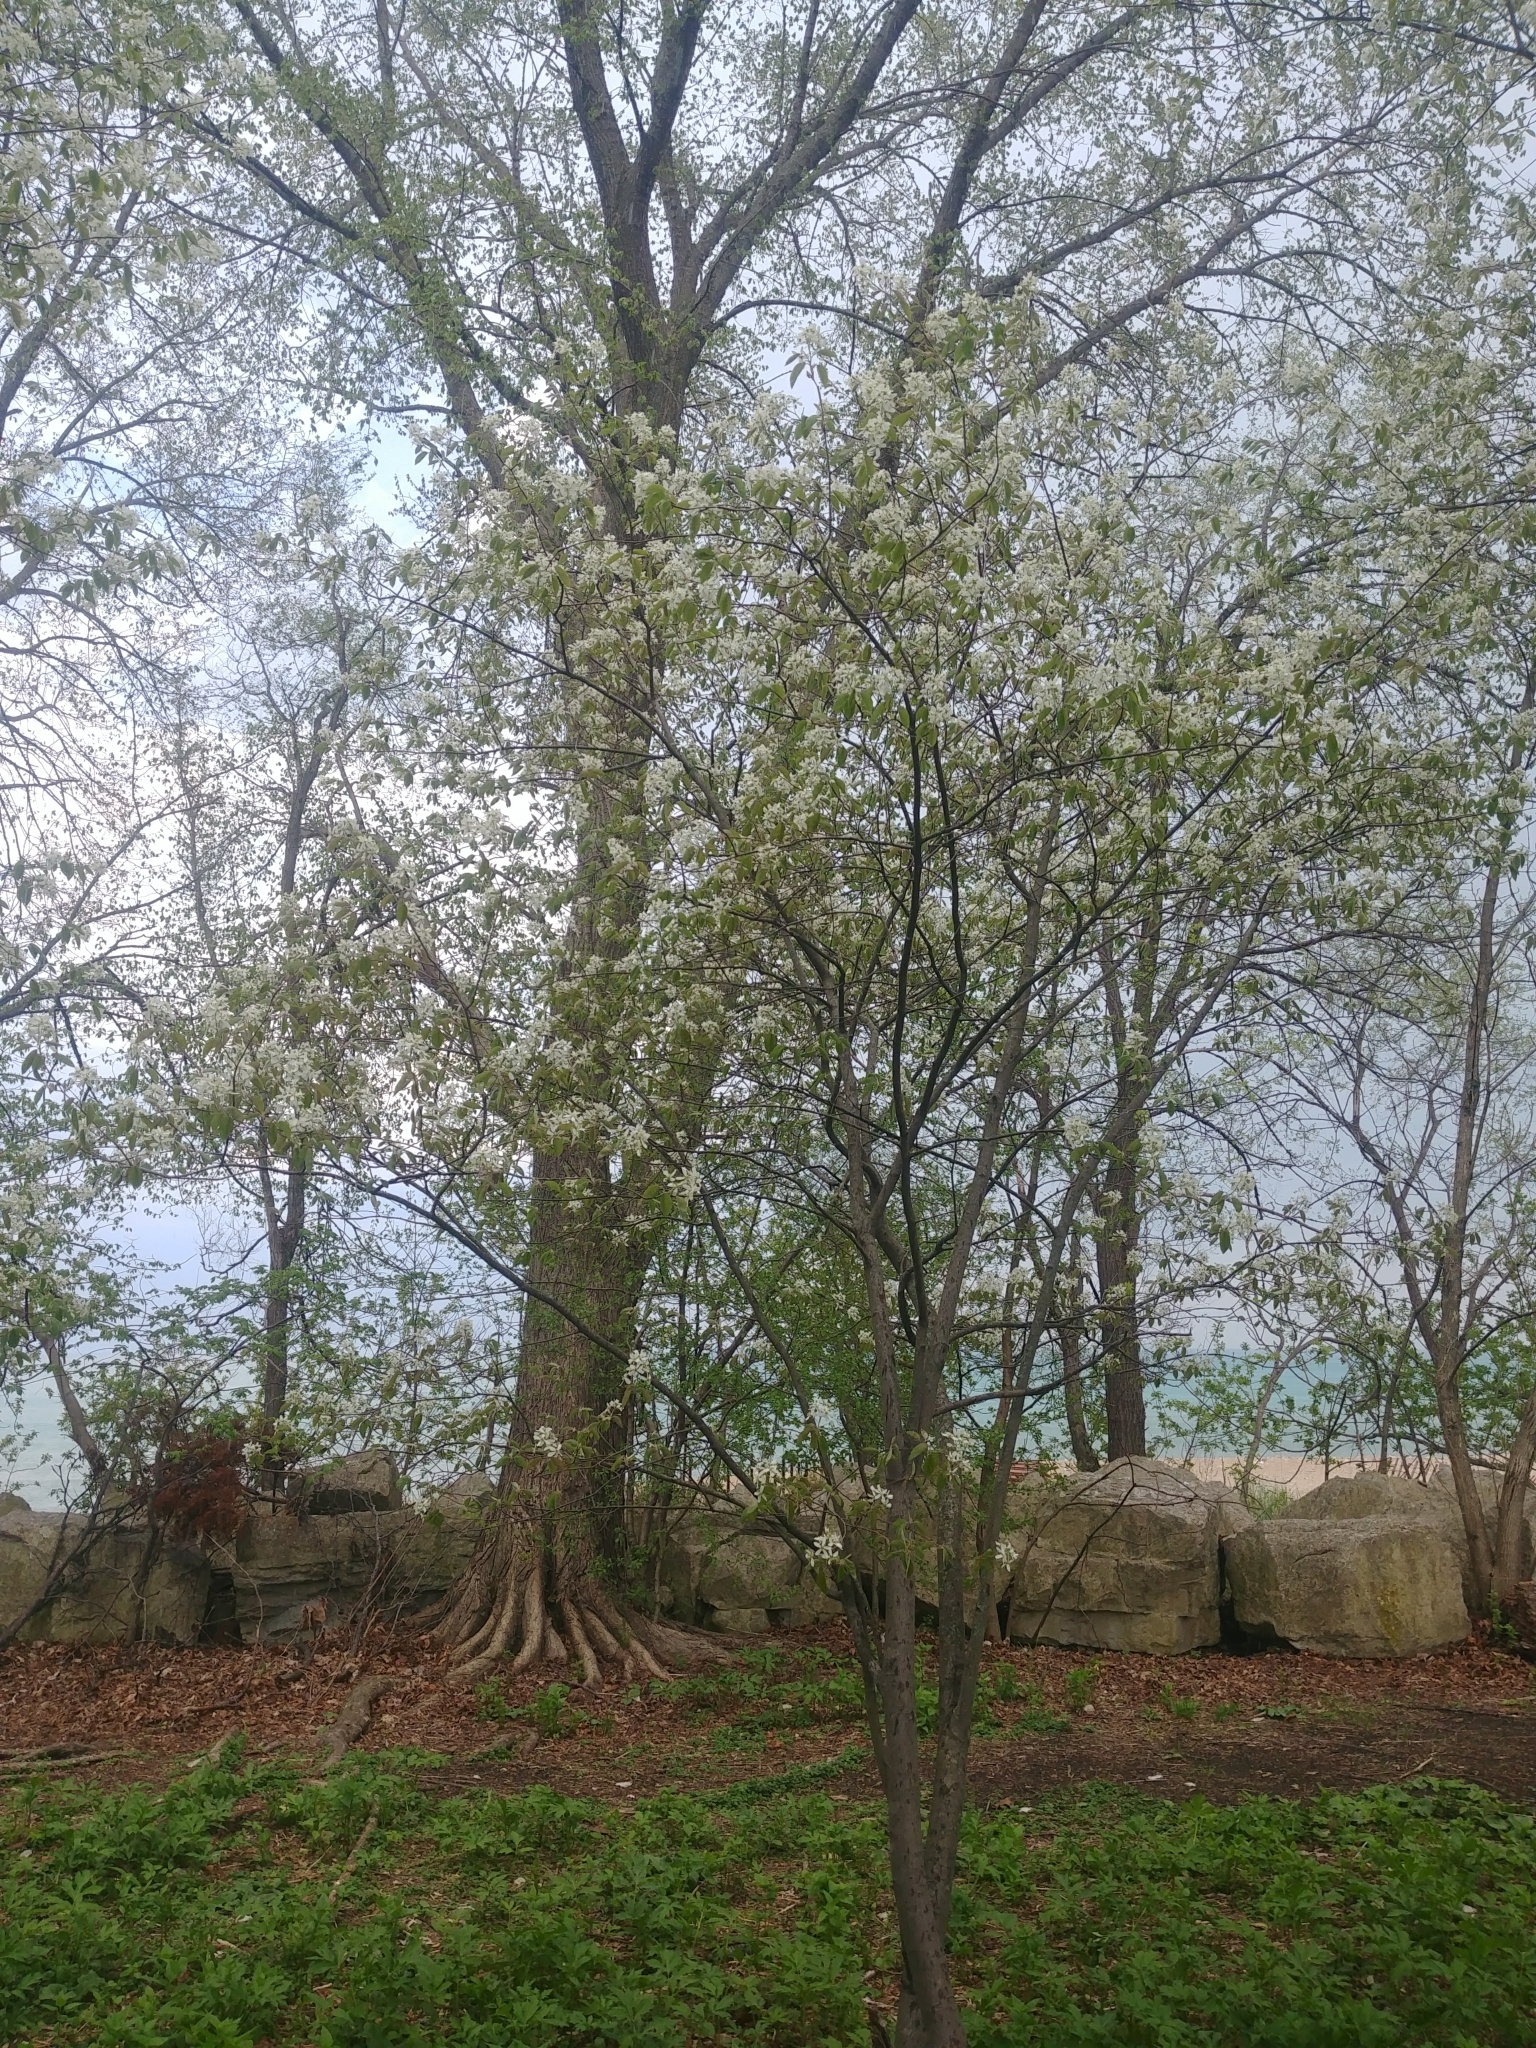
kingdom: Plantae
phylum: Tracheophyta
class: Magnoliopsida
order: Rosales
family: Rosaceae
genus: Amelanchier
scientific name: Amelanchier arborea
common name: Downy serviceberry
